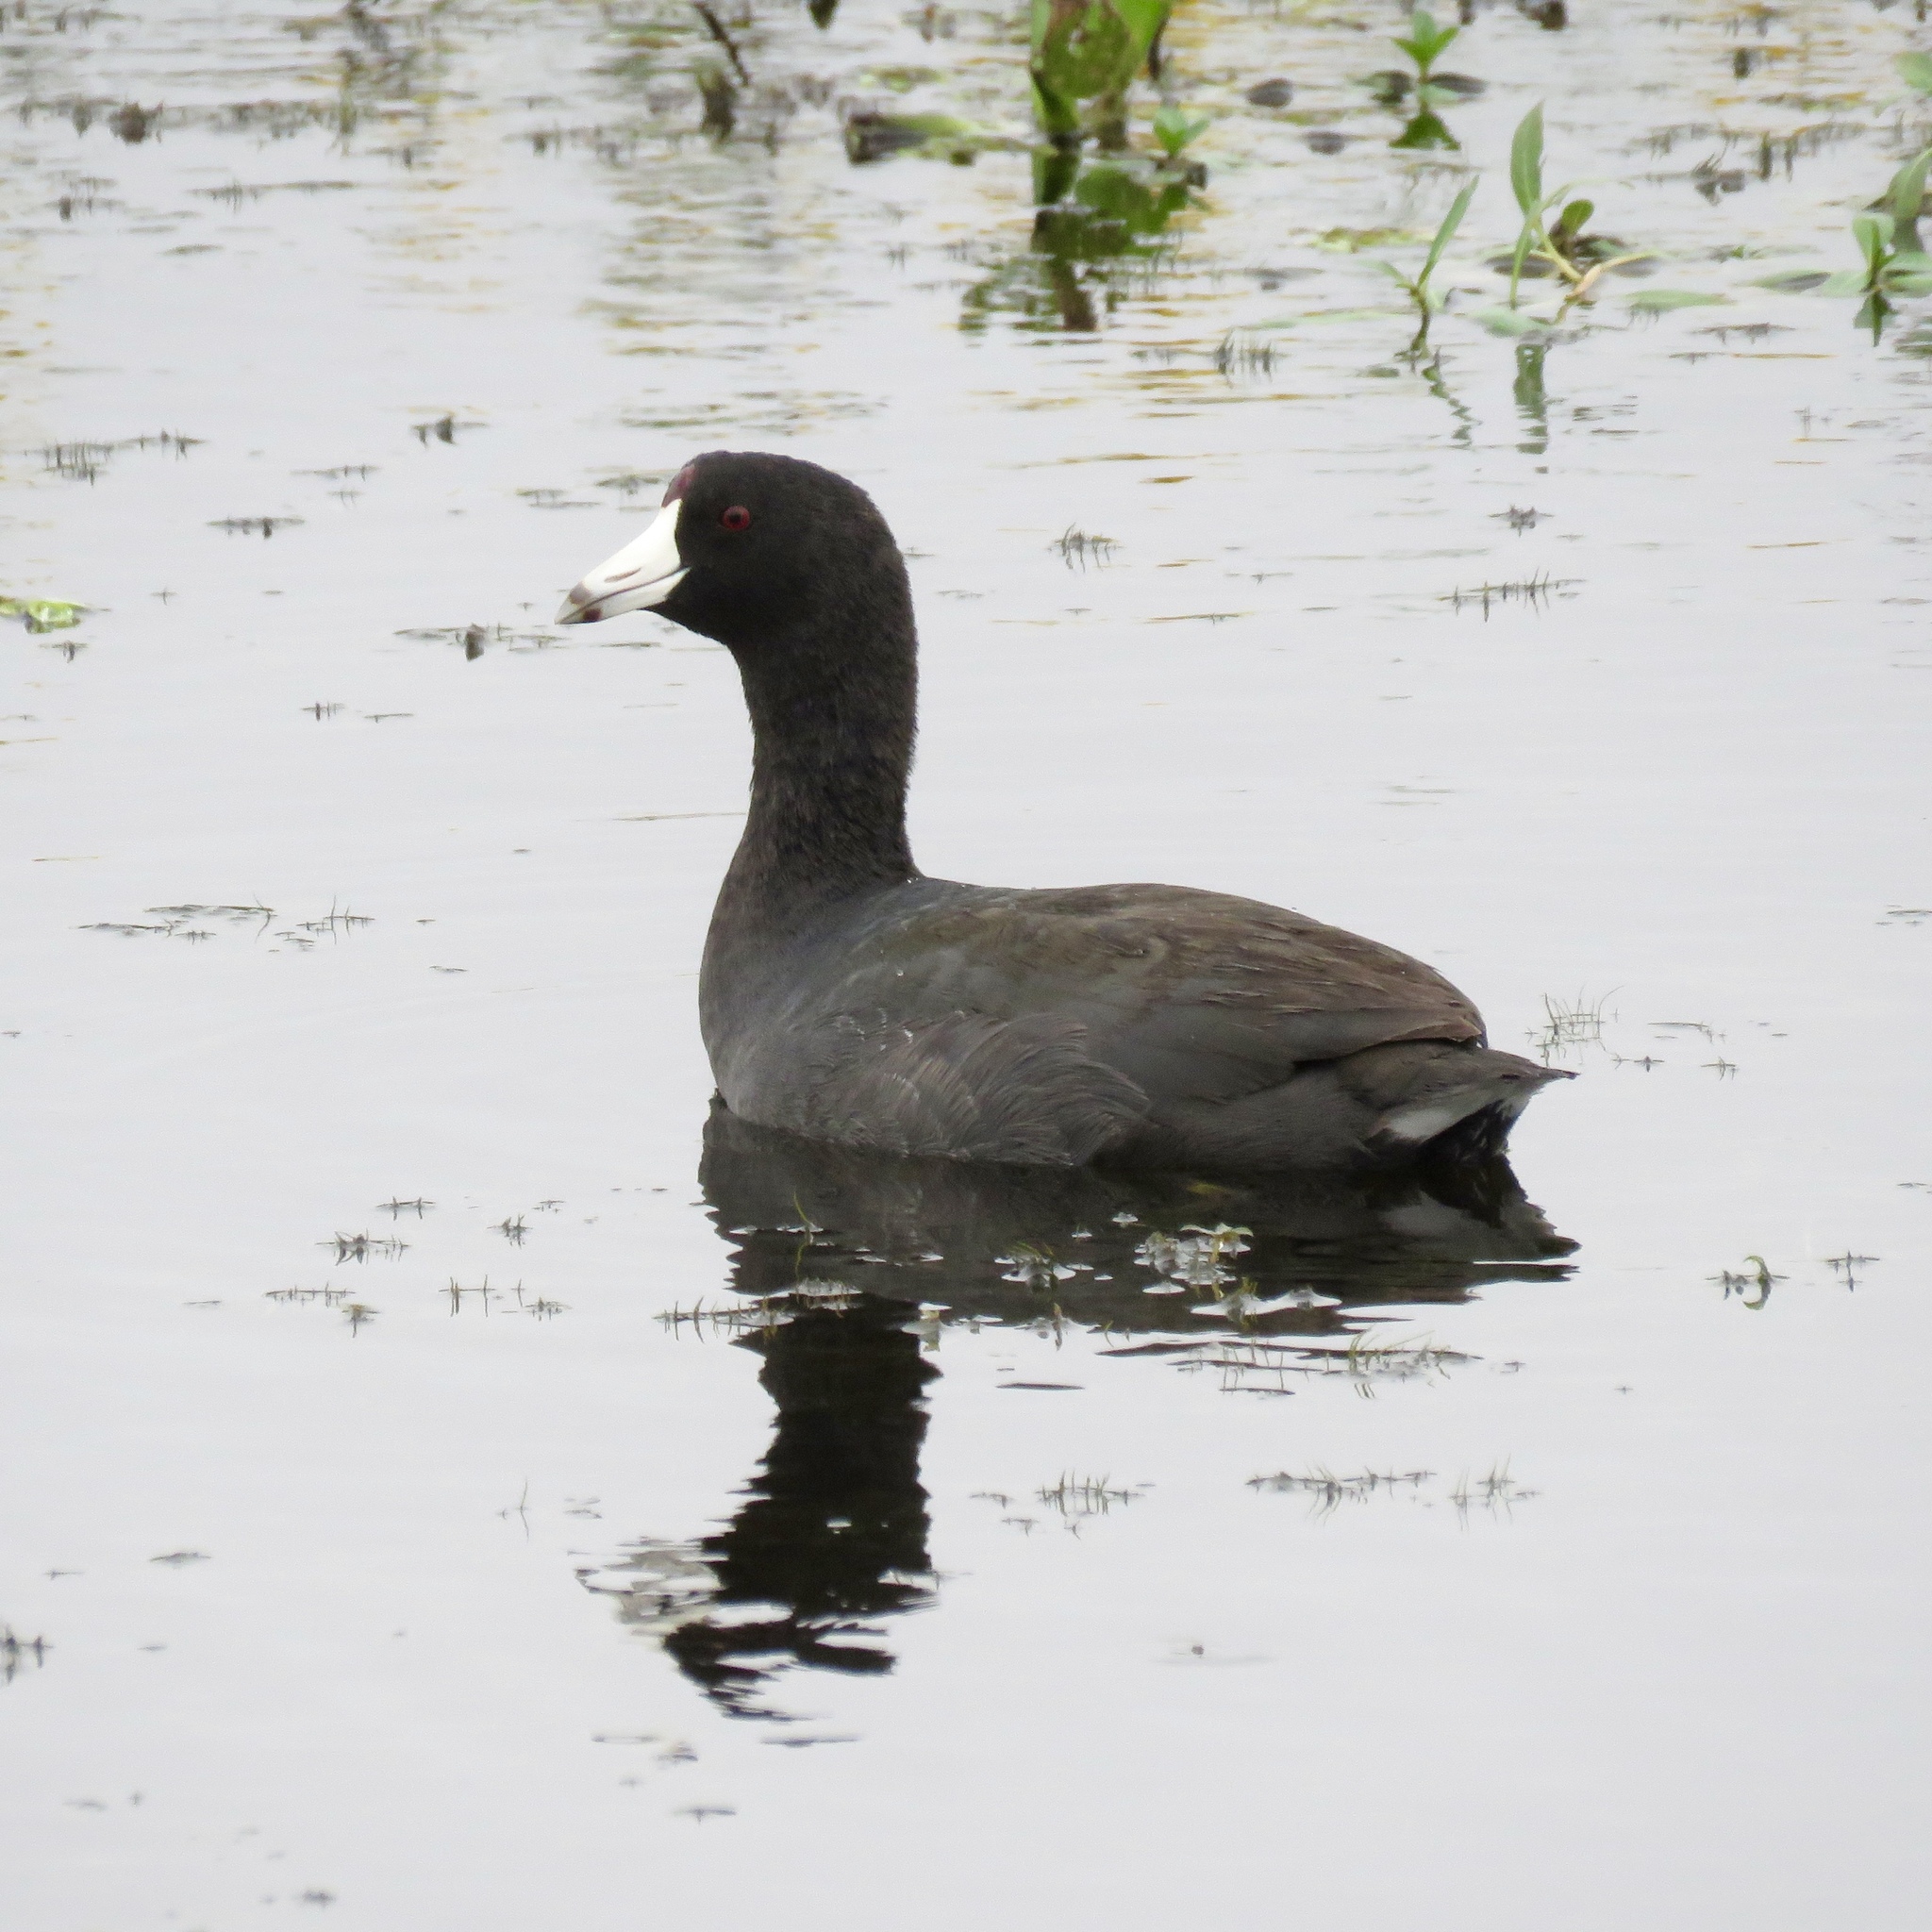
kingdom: Animalia
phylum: Chordata
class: Aves
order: Gruiformes
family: Rallidae
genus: Fulica
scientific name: Fulica americana
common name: American coot
